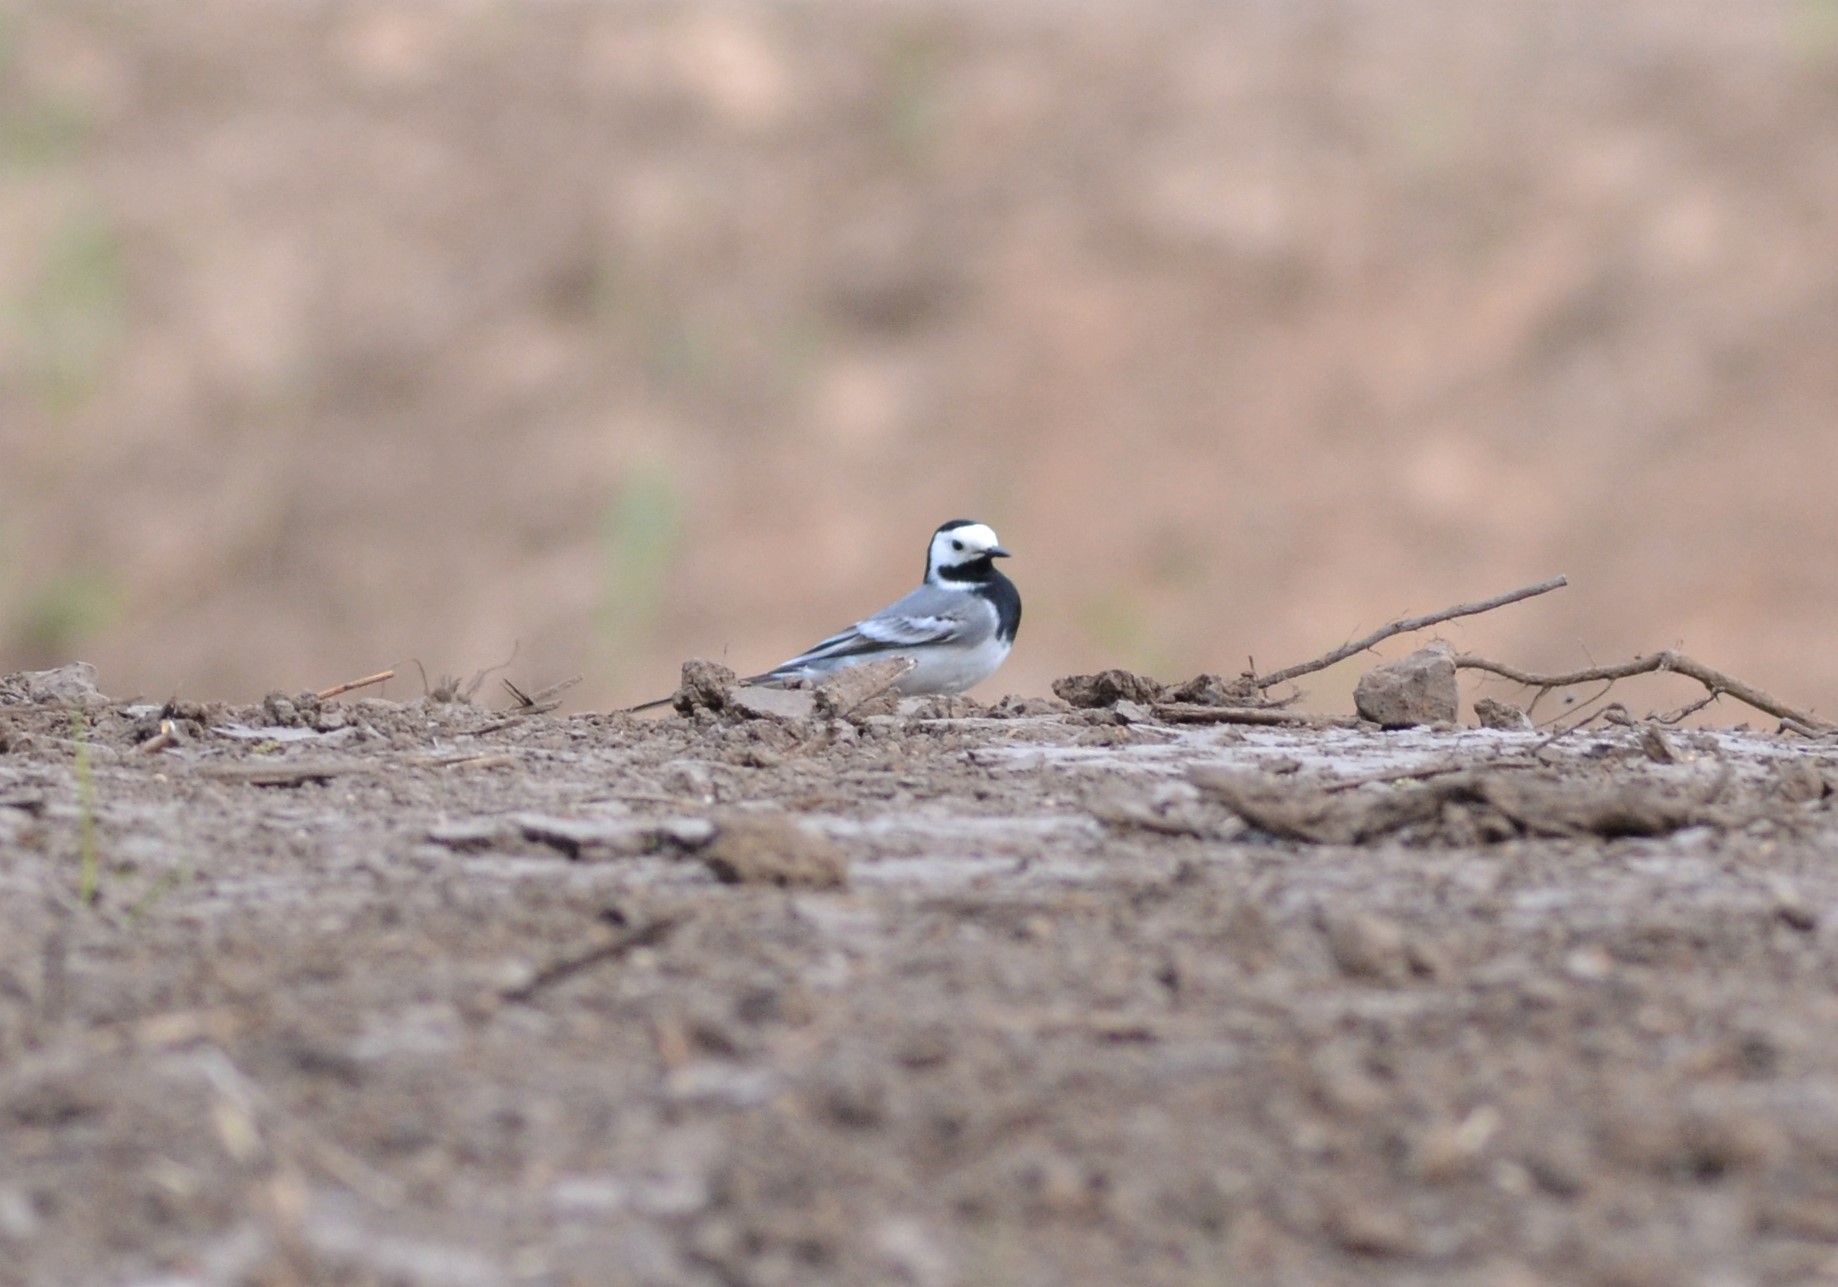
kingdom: Animalia
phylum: Chordata
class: Aves
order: Passeriformes
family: Motacillidae
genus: Motacilla
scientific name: Motacilla alba
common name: White wagtail
